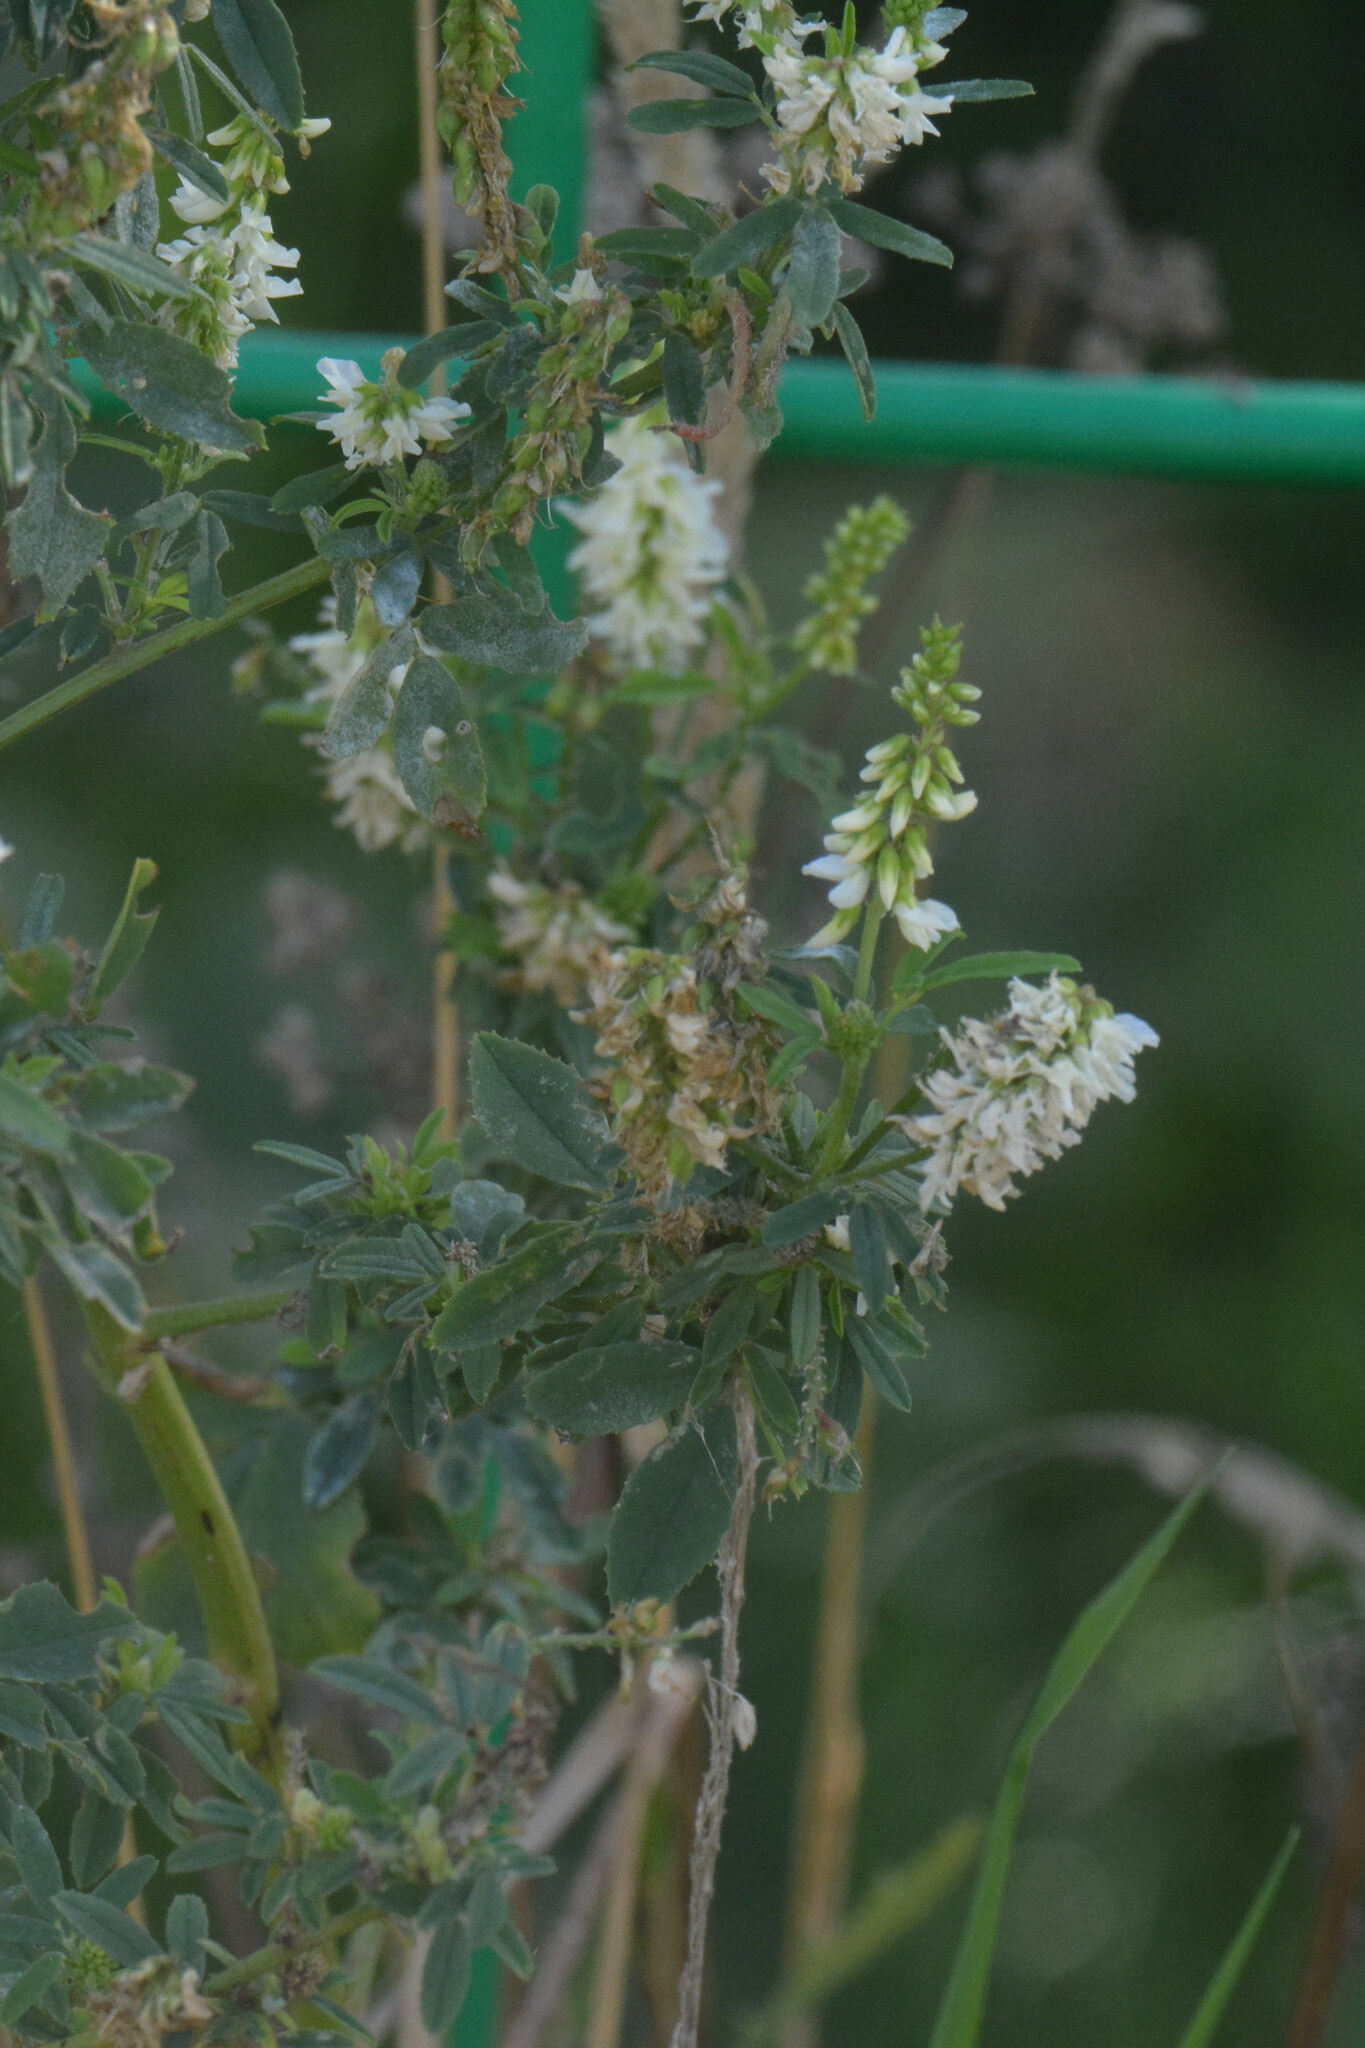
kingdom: Plantae
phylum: Tracheophyta
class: Magnoliopsida
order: Fabales
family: Fabaceae
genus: Melilotus
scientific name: Melilotus albus
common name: White melilot
